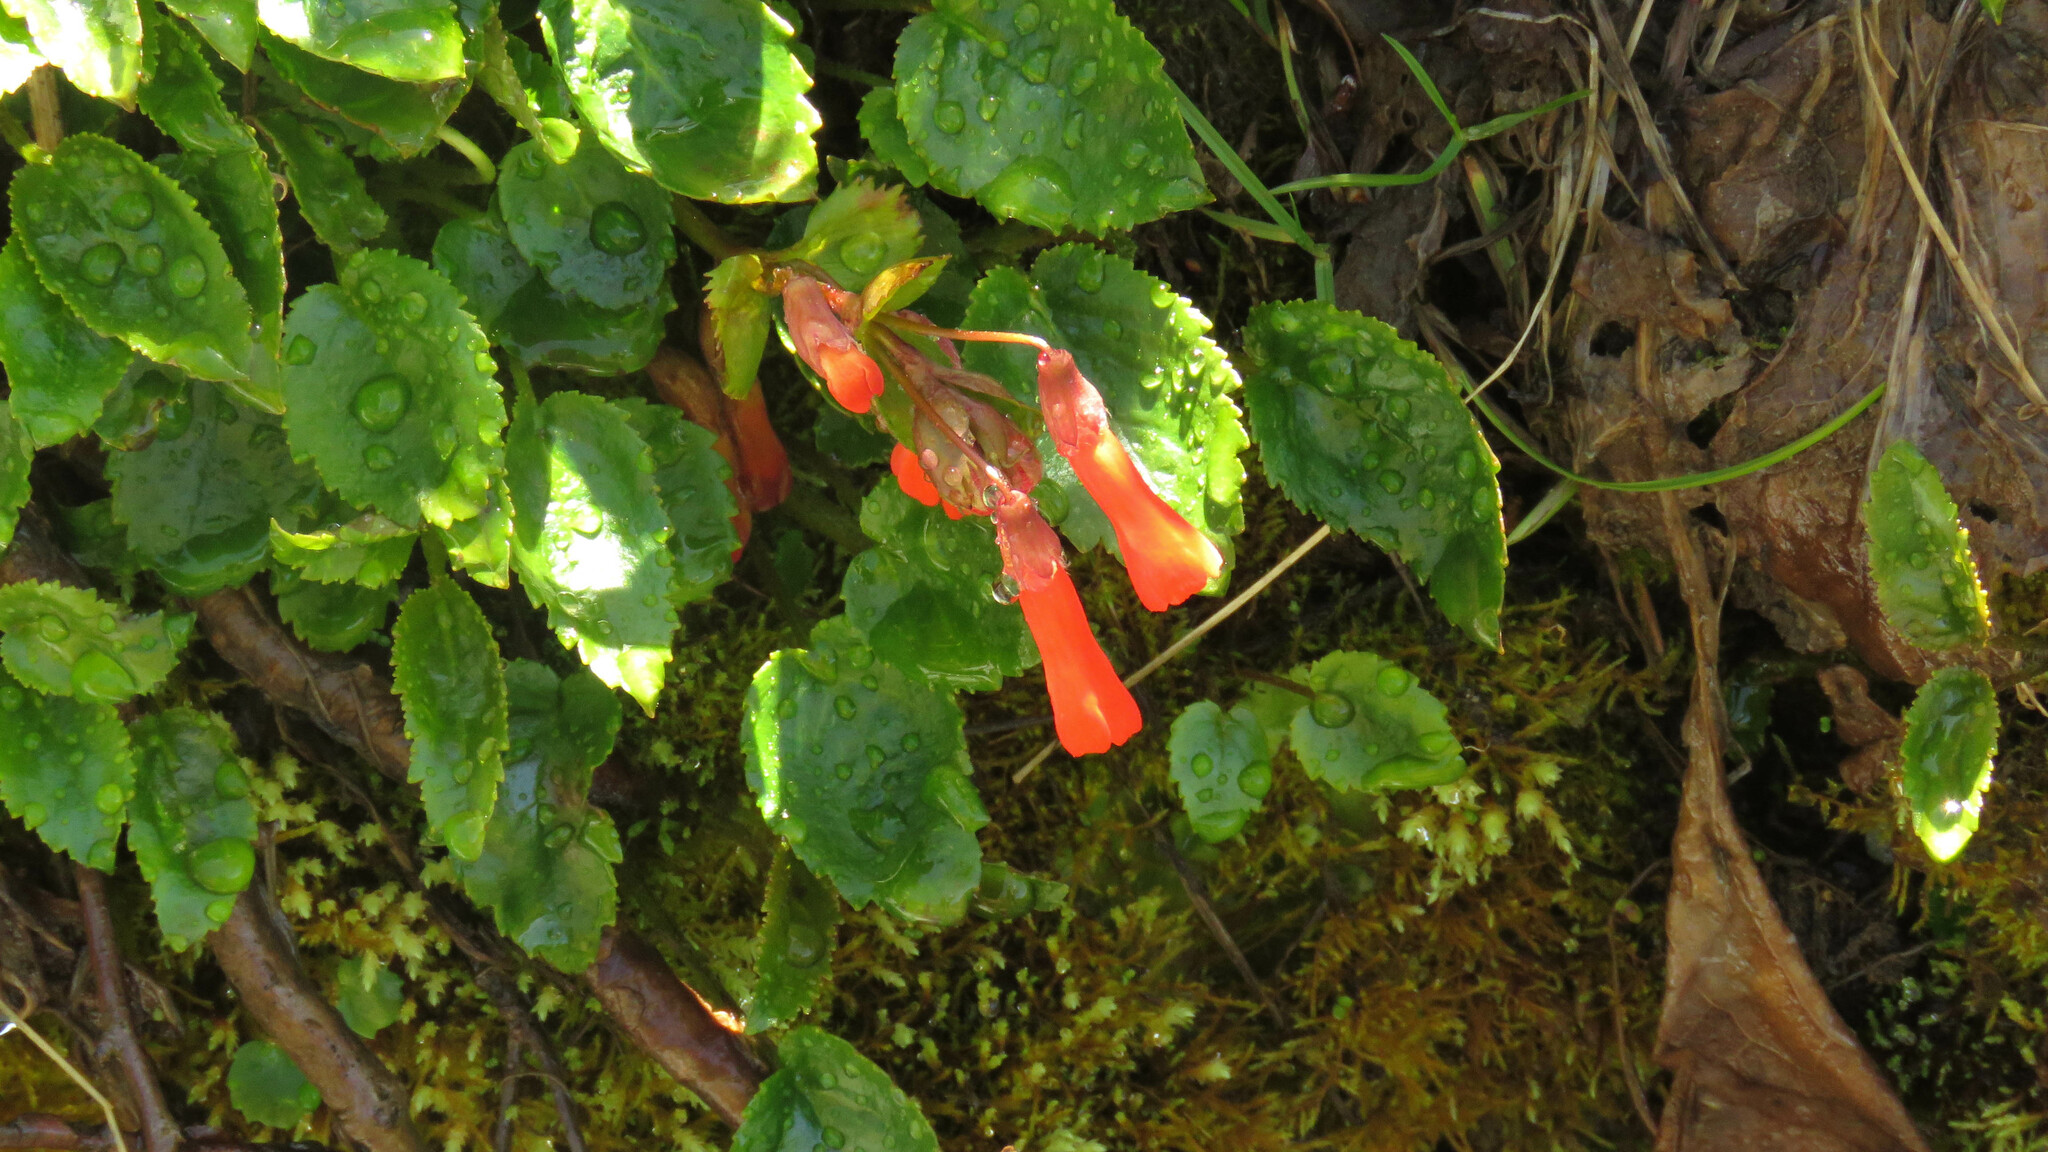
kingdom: Plantae
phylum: Tracheophyta
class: Magnoliopsida
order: Lamiales
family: Plantaginaceae
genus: Ourisia
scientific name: Ourisia ruellioides
